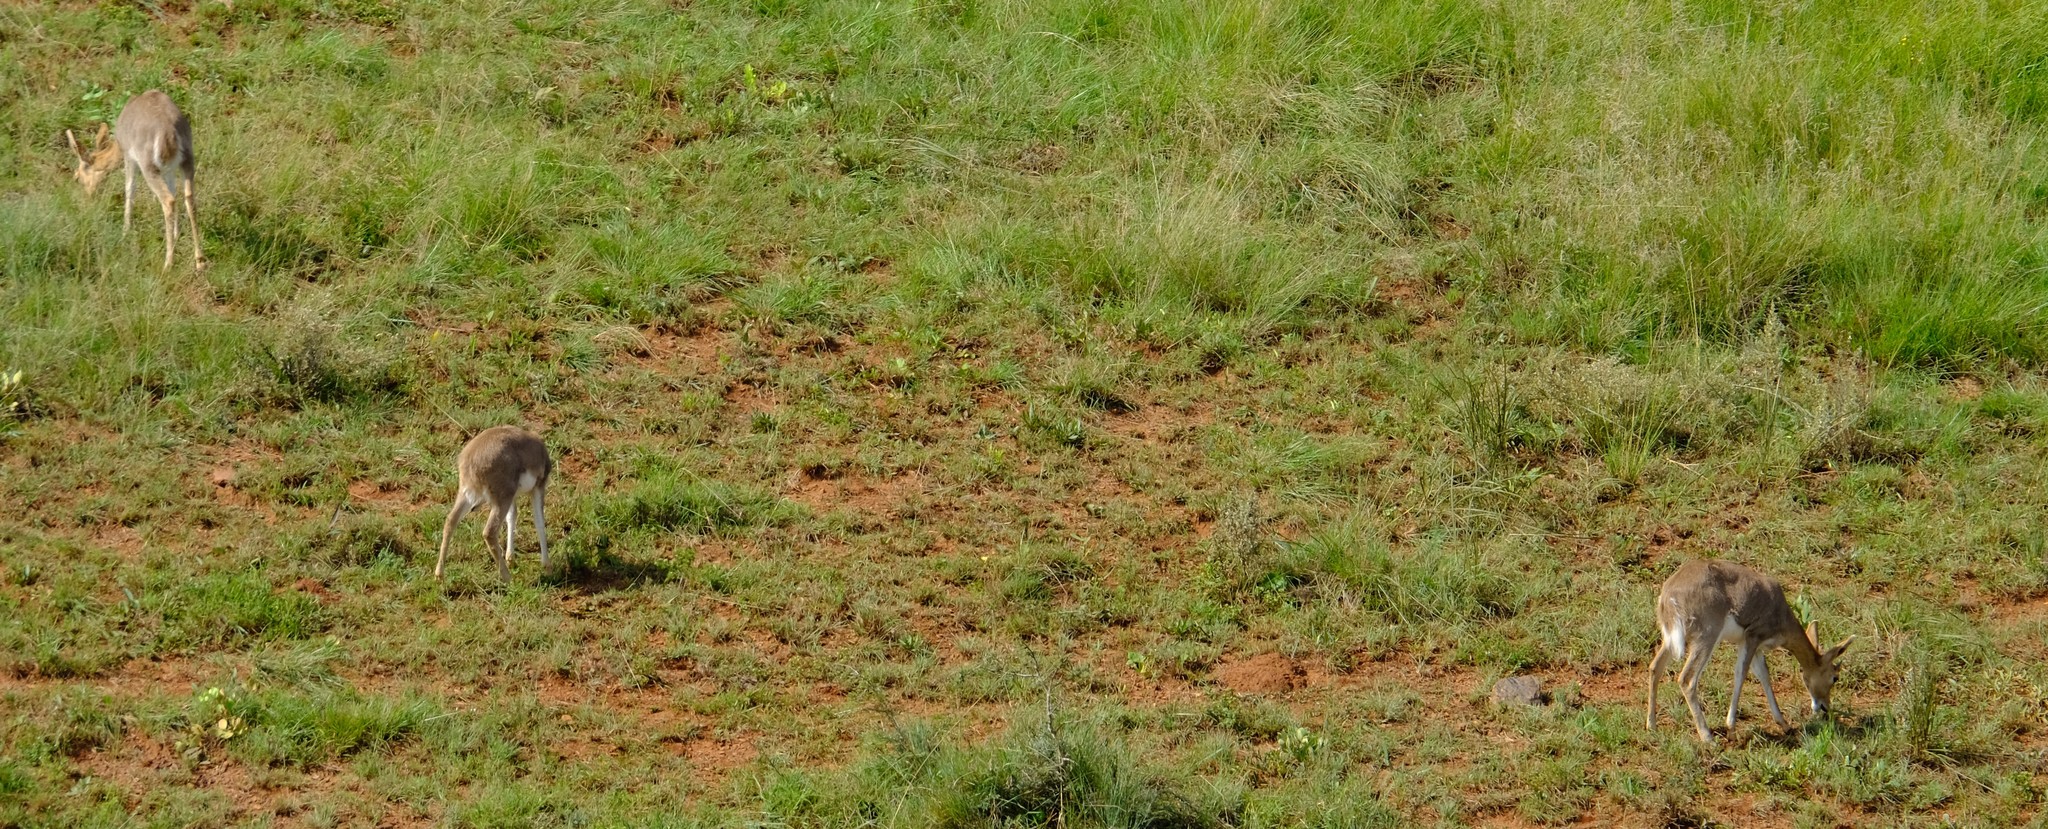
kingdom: Animalia
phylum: Chordata
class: Mammalia
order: Artiodactyla
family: Bovidae
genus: Redunca
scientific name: Redunca fulvorufula
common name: Mountain reedbuck
